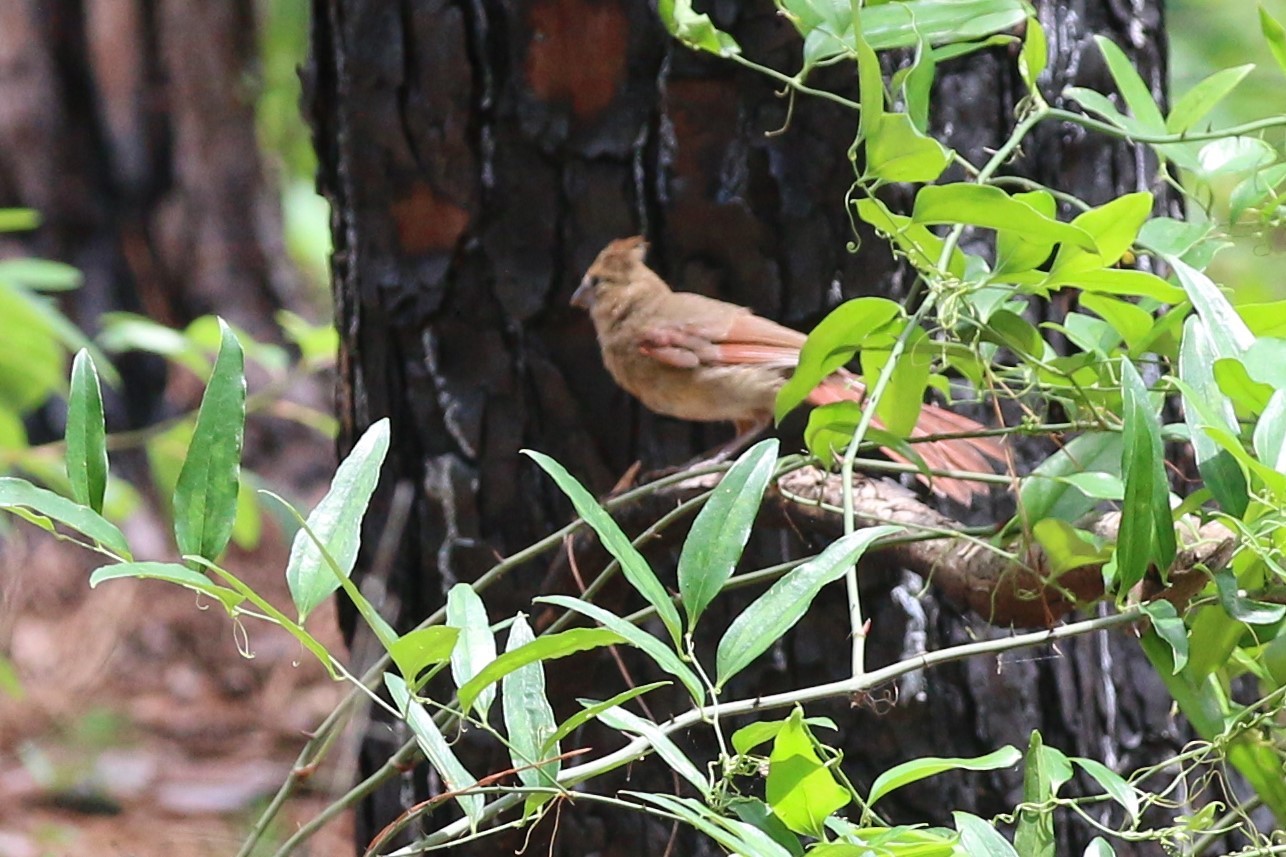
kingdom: Animalia
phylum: Chordata
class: Aves
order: Passeriformes
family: Cardinalidae
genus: Cardinalis
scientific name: Cardinalis cardinalis
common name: Northern cardinal
